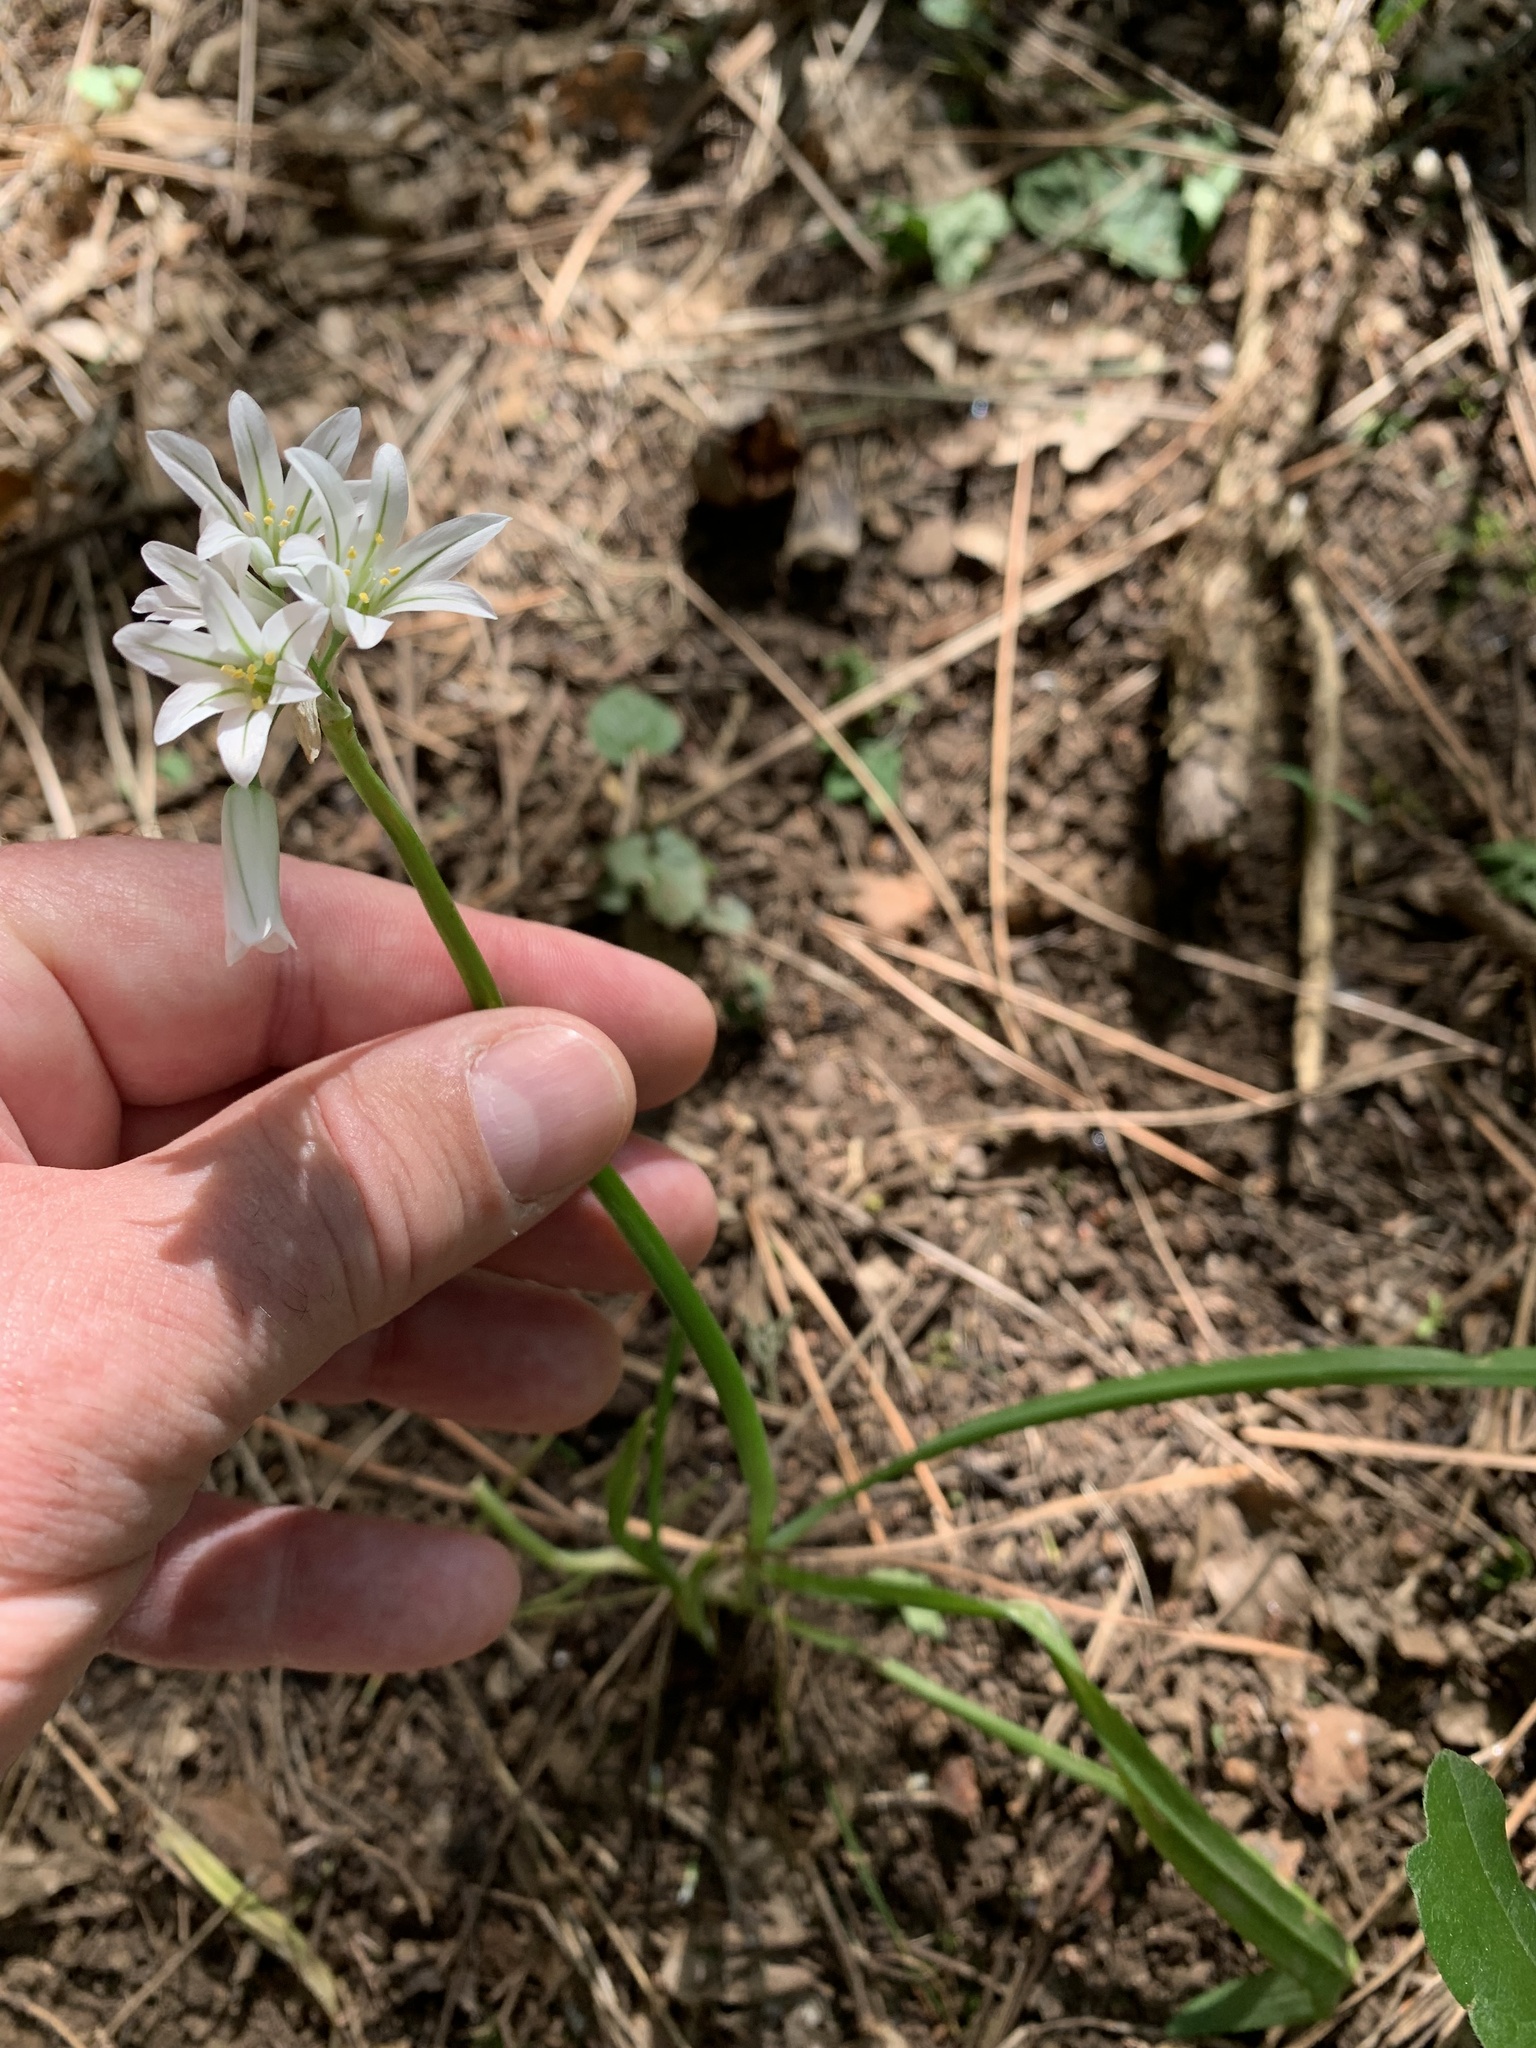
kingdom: Plantae
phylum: Tracheophyta
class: Liliopsida
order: Asparagales
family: Amaryllidaceae
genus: Allium
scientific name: Allium triquetrum
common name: Three-cornered garlic
